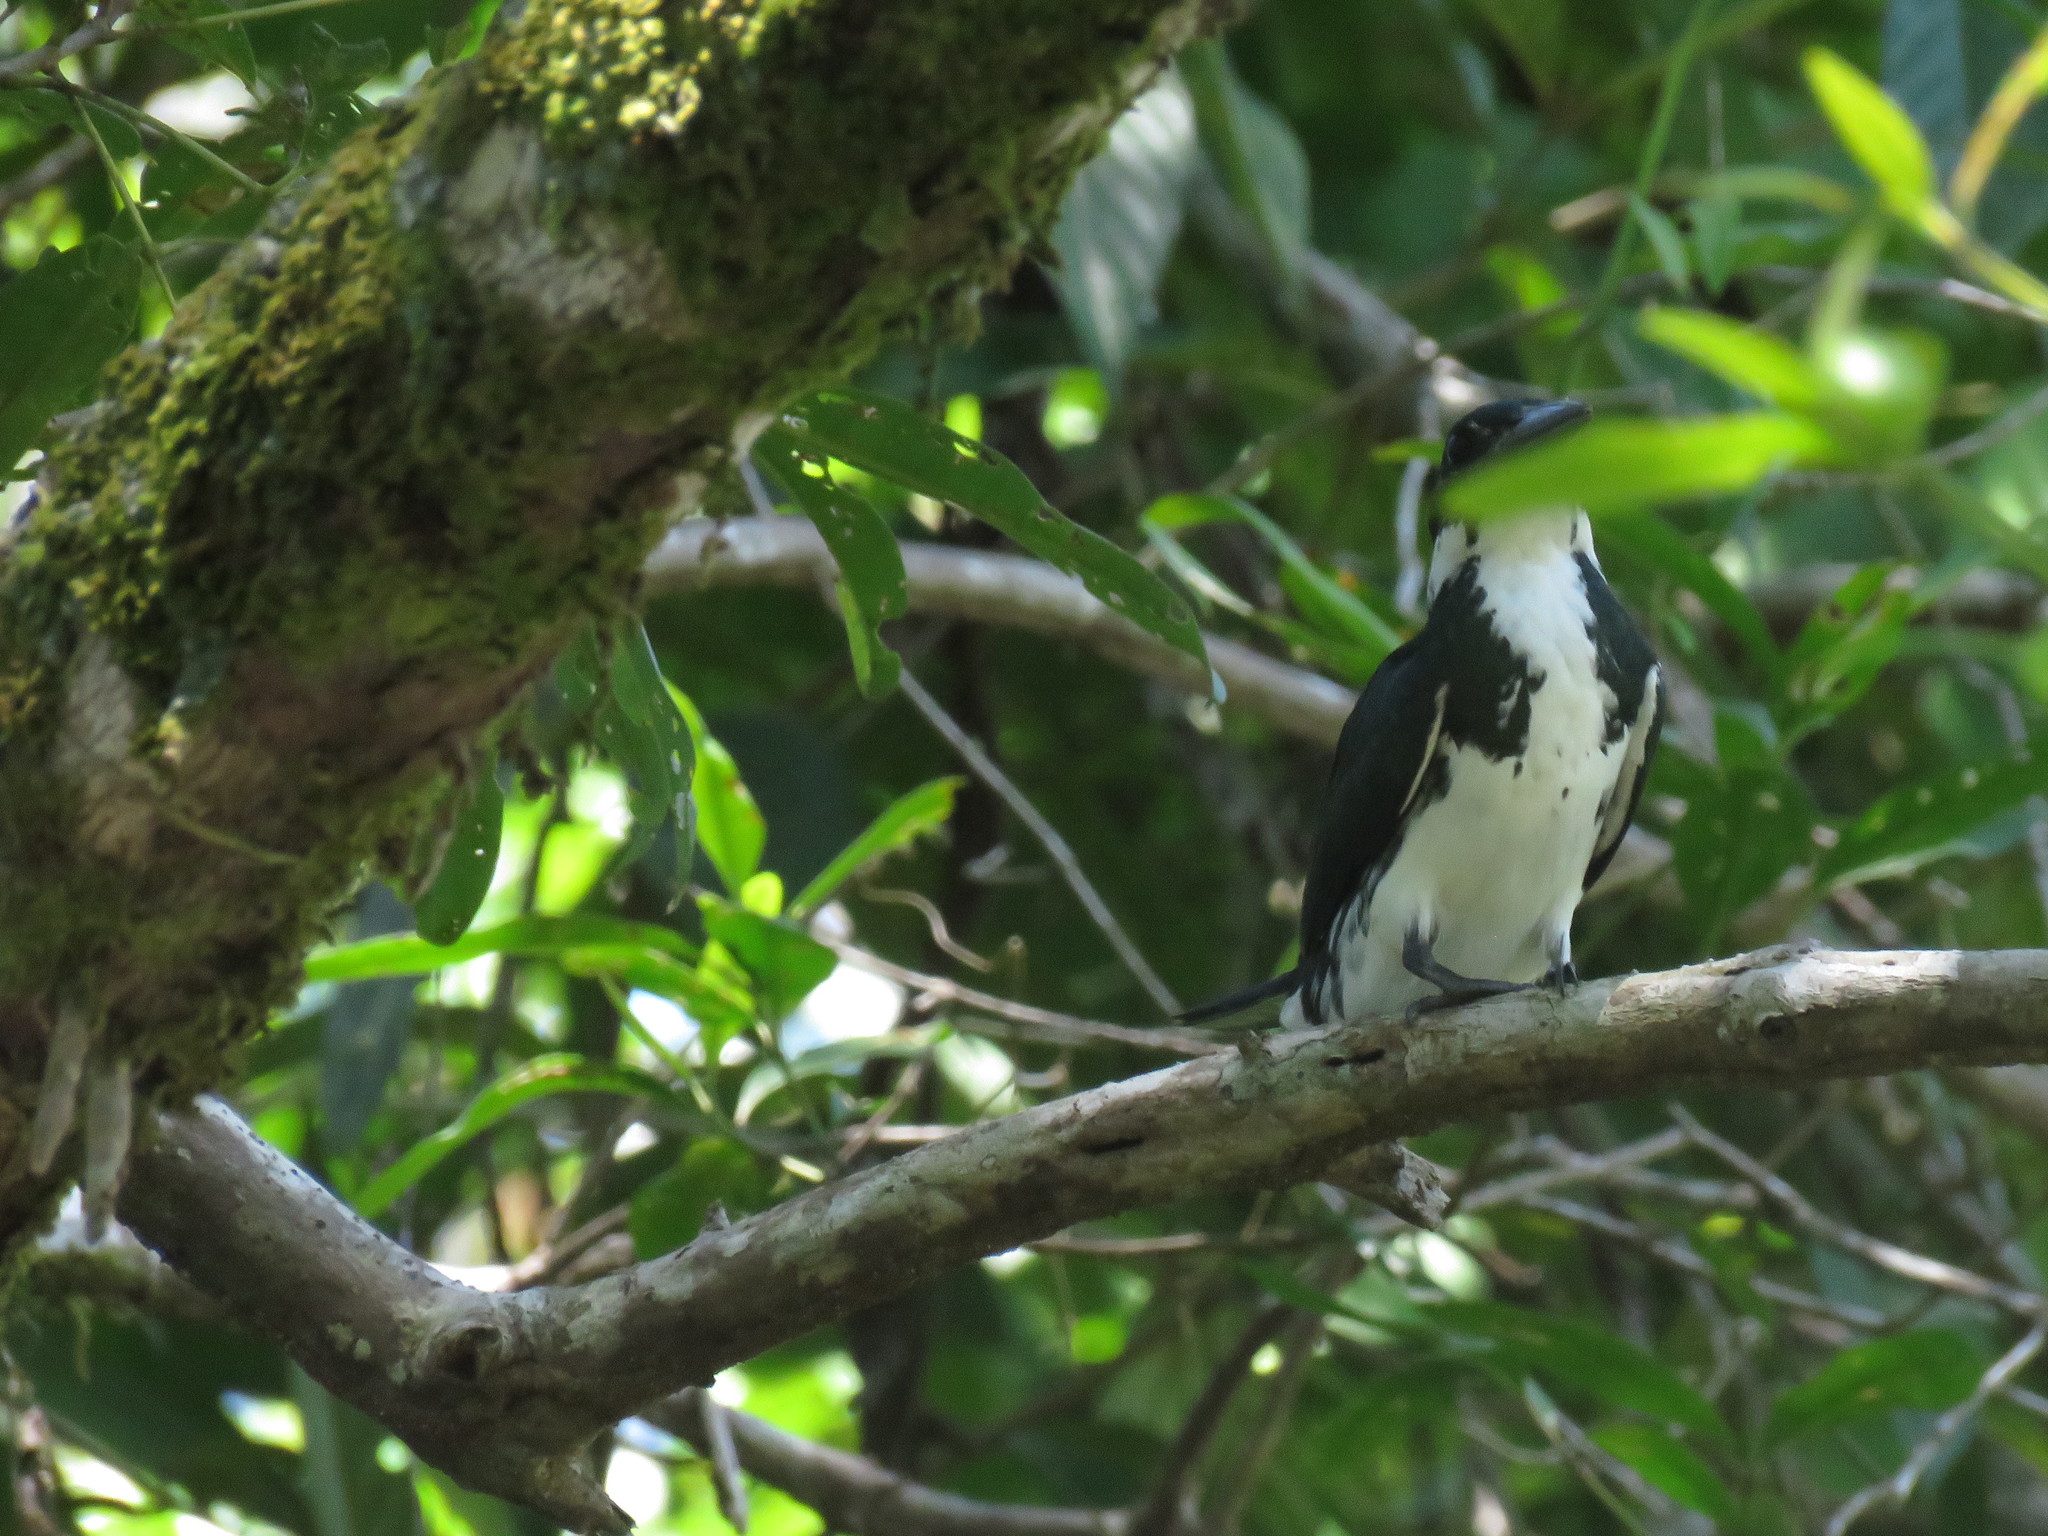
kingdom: Animalia
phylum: Chordata
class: Aves
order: Coraciiformes
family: Alcedinidae
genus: Chloroceryle
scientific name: Chloroceryle amazona
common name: Amazon kingfisher
